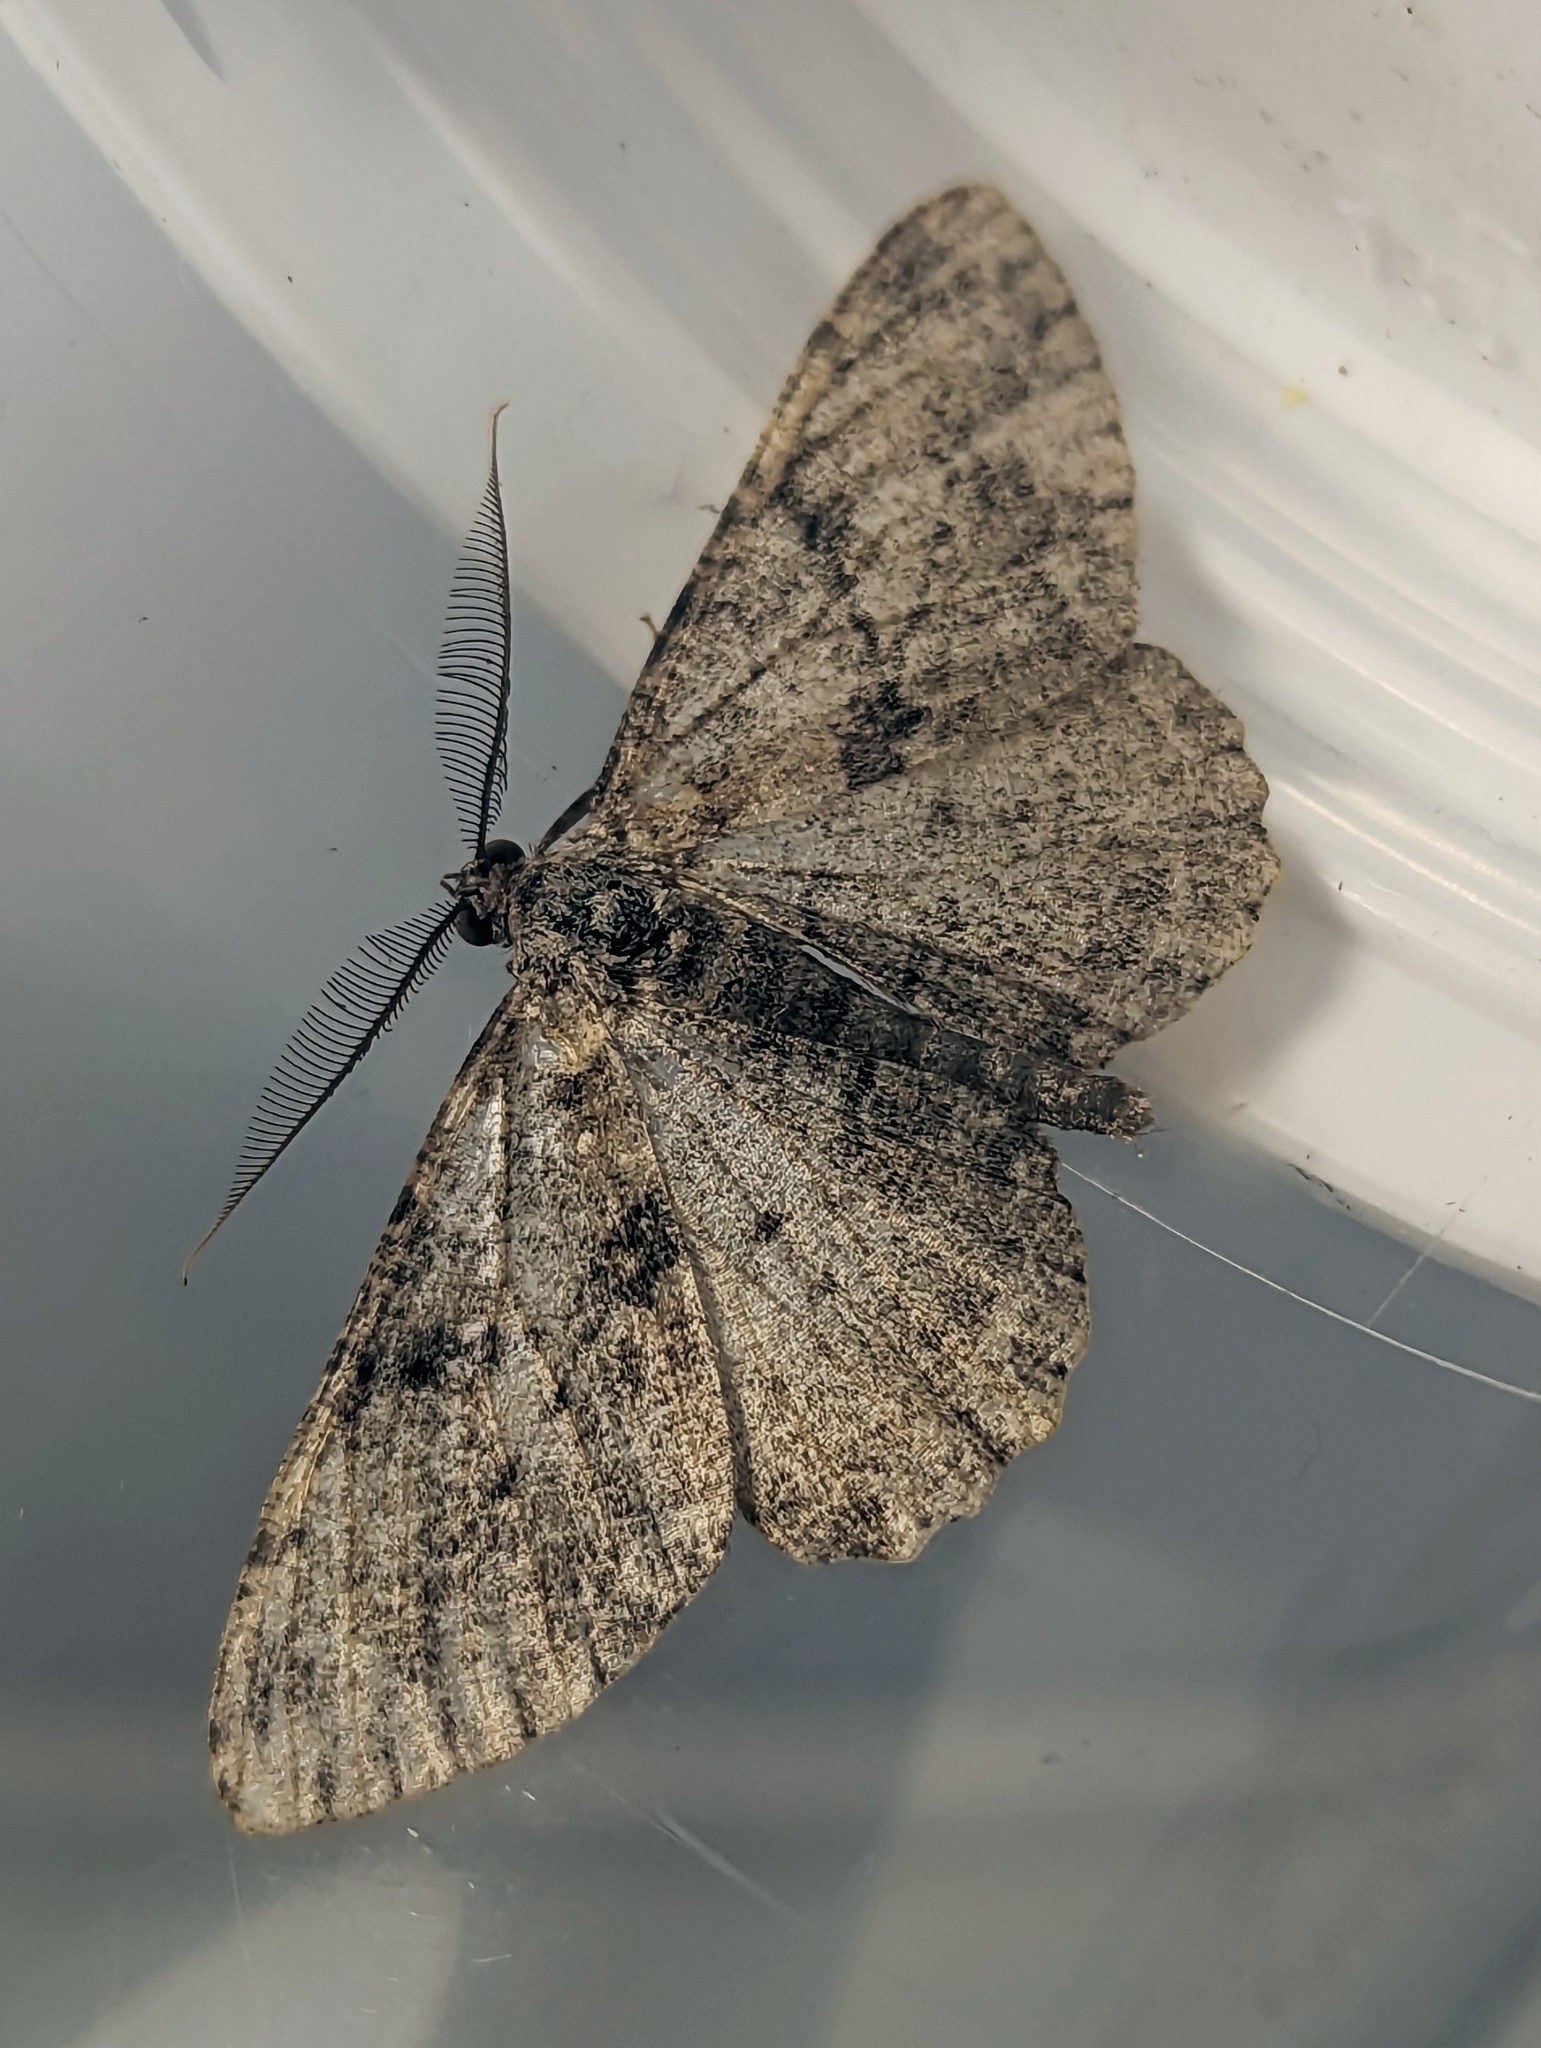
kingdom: Animalia
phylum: Arthropoda
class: Insecta
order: Lepidoptera
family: Geometridae
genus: Peribatodes
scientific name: Peribatodes rhomboidaria
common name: Willow beauty
